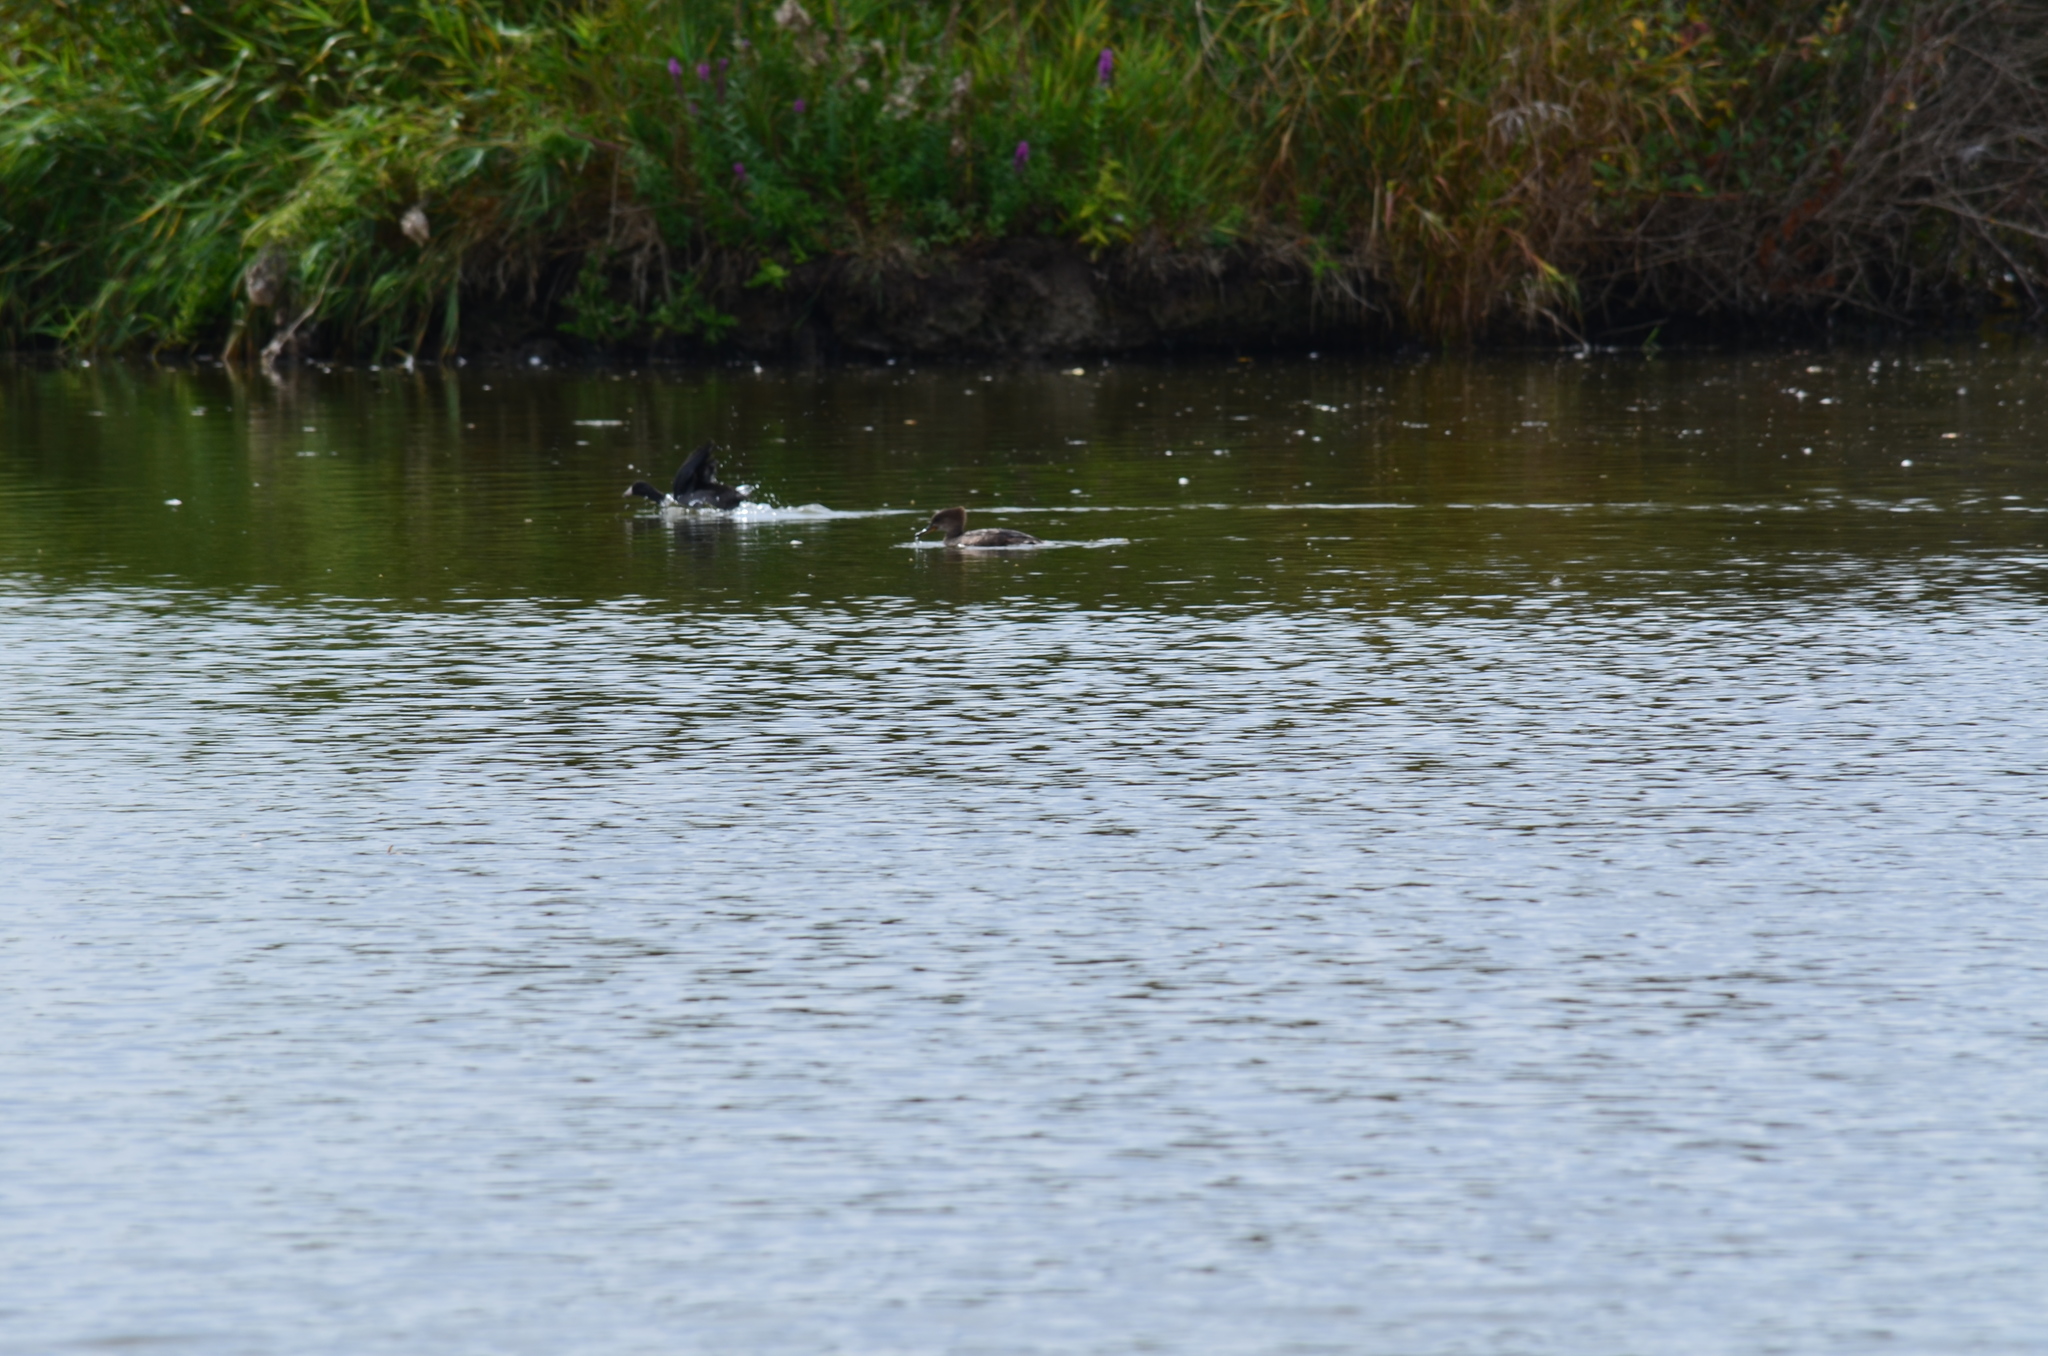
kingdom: Animalia
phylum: Chordata
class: Aves
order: Gruiformes
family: Rallidae
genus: Fulica
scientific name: Fulica americana
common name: American coot
